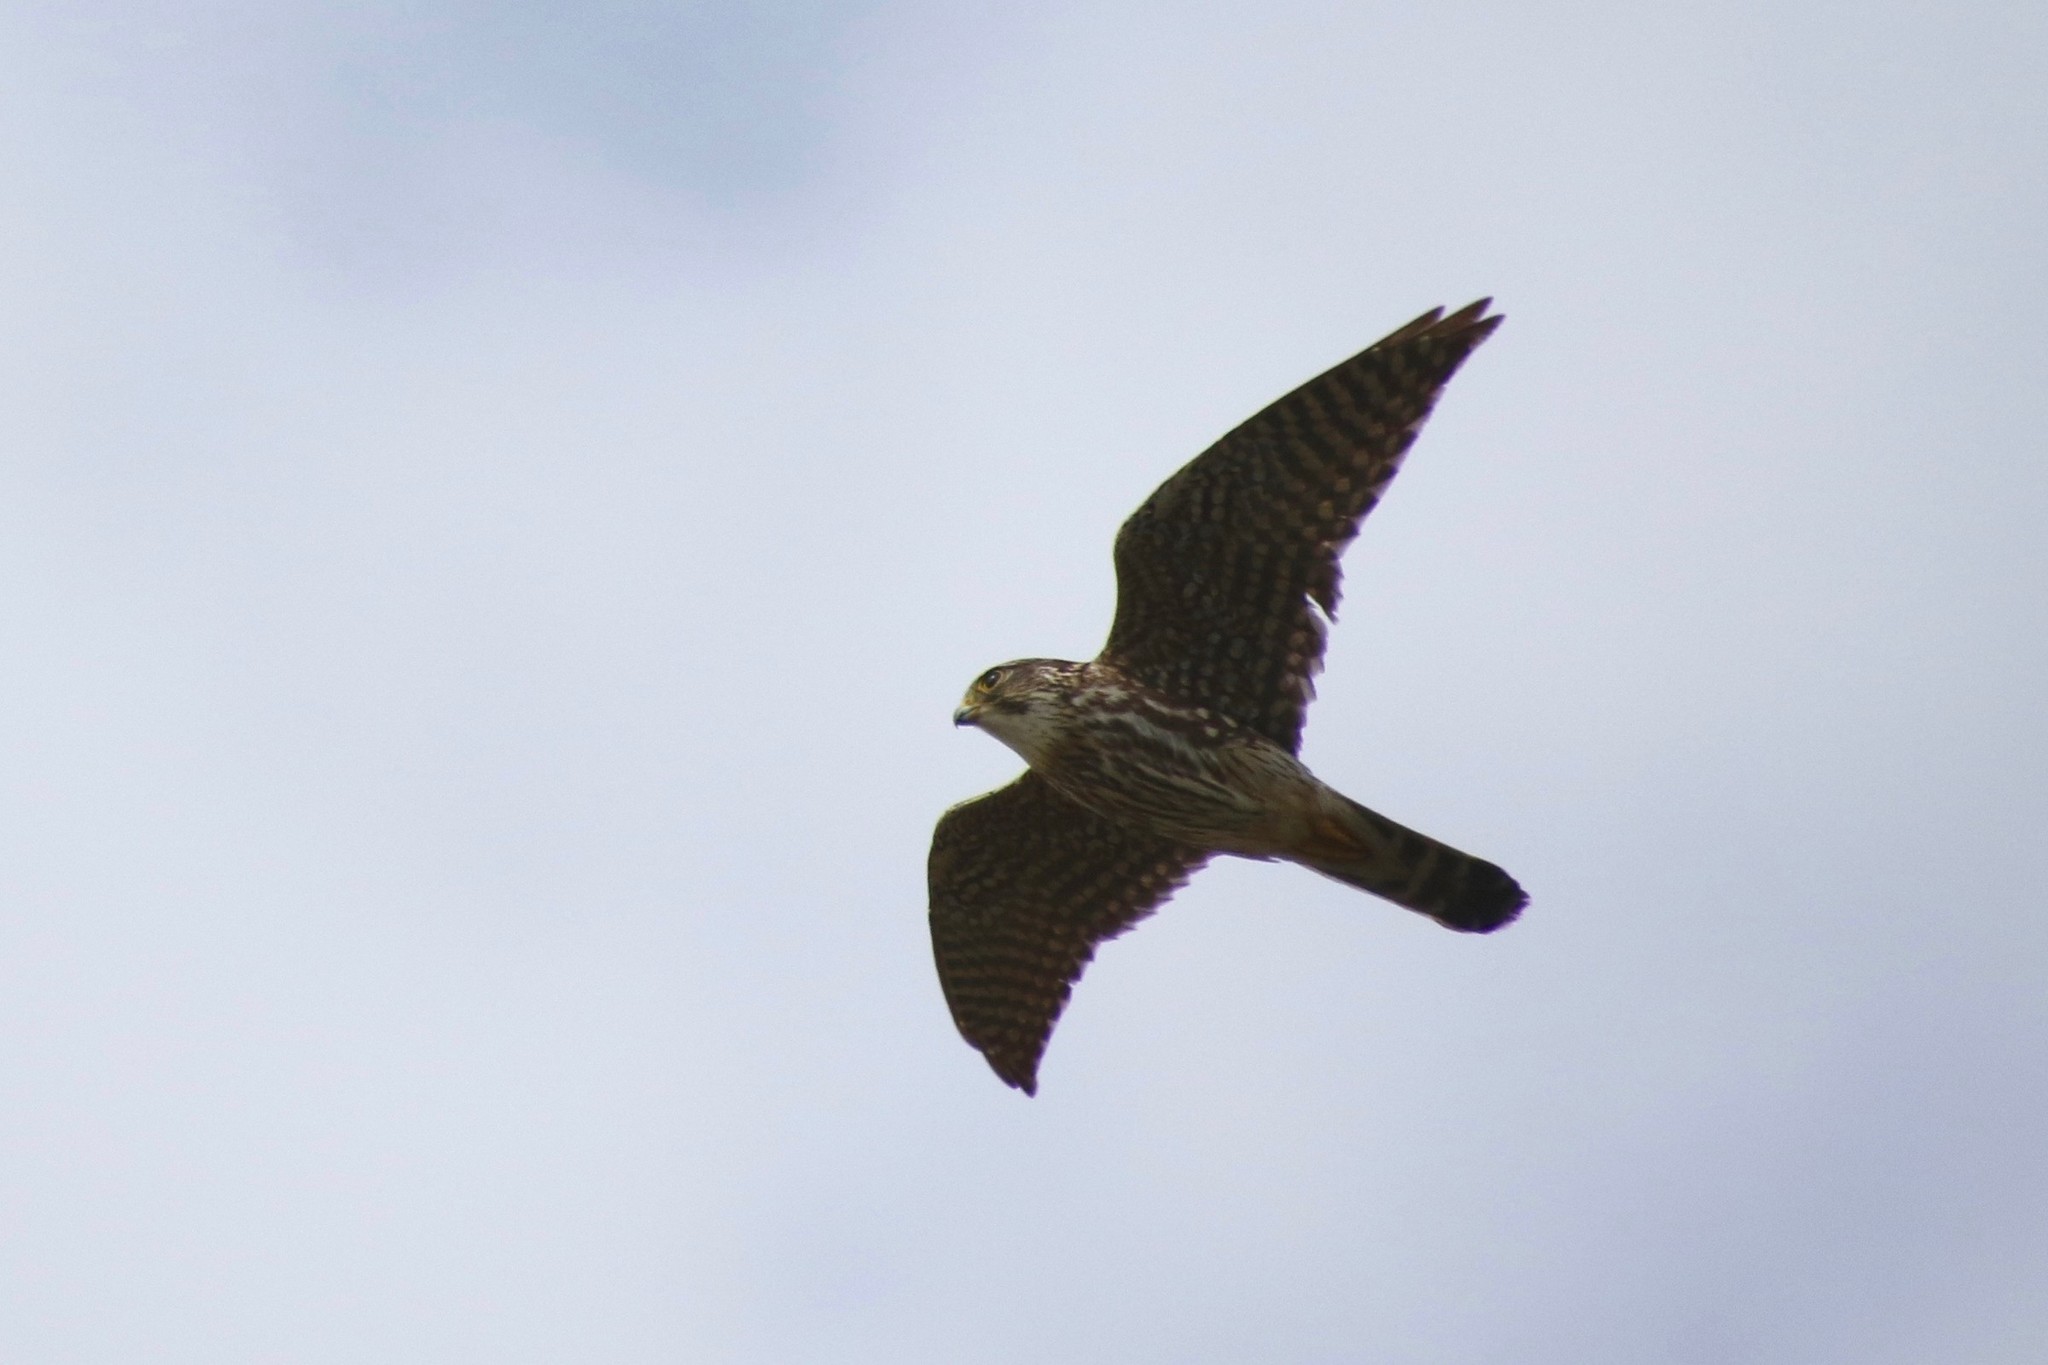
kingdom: Animalia
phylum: Chordata
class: Aves
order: Falconiformes
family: Falconidae
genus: Falco
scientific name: Falco columbarius
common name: Merlin
